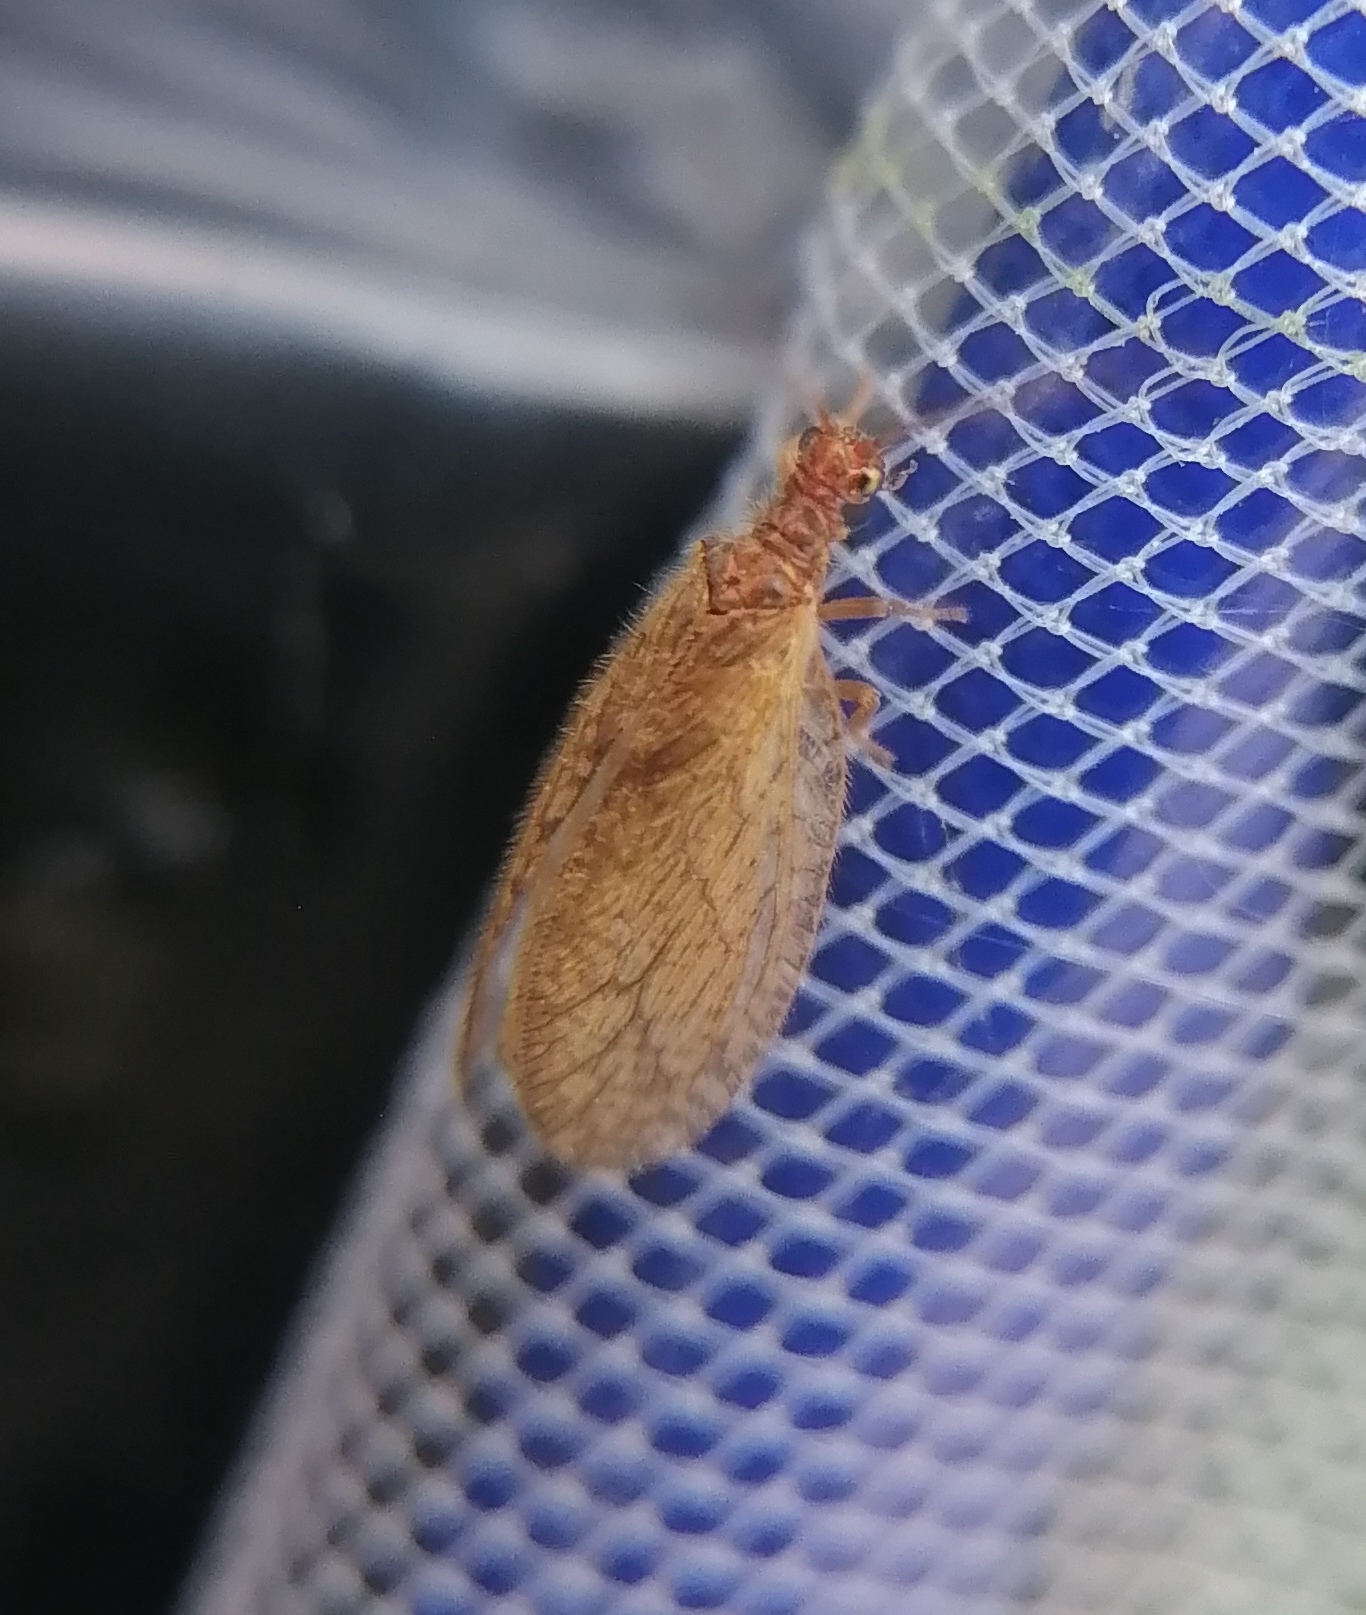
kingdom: Animalia
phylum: Arthropoda
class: Insecta
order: Neuroptera
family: Hemerobiidae
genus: Micromus
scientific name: Micromus angulatus
